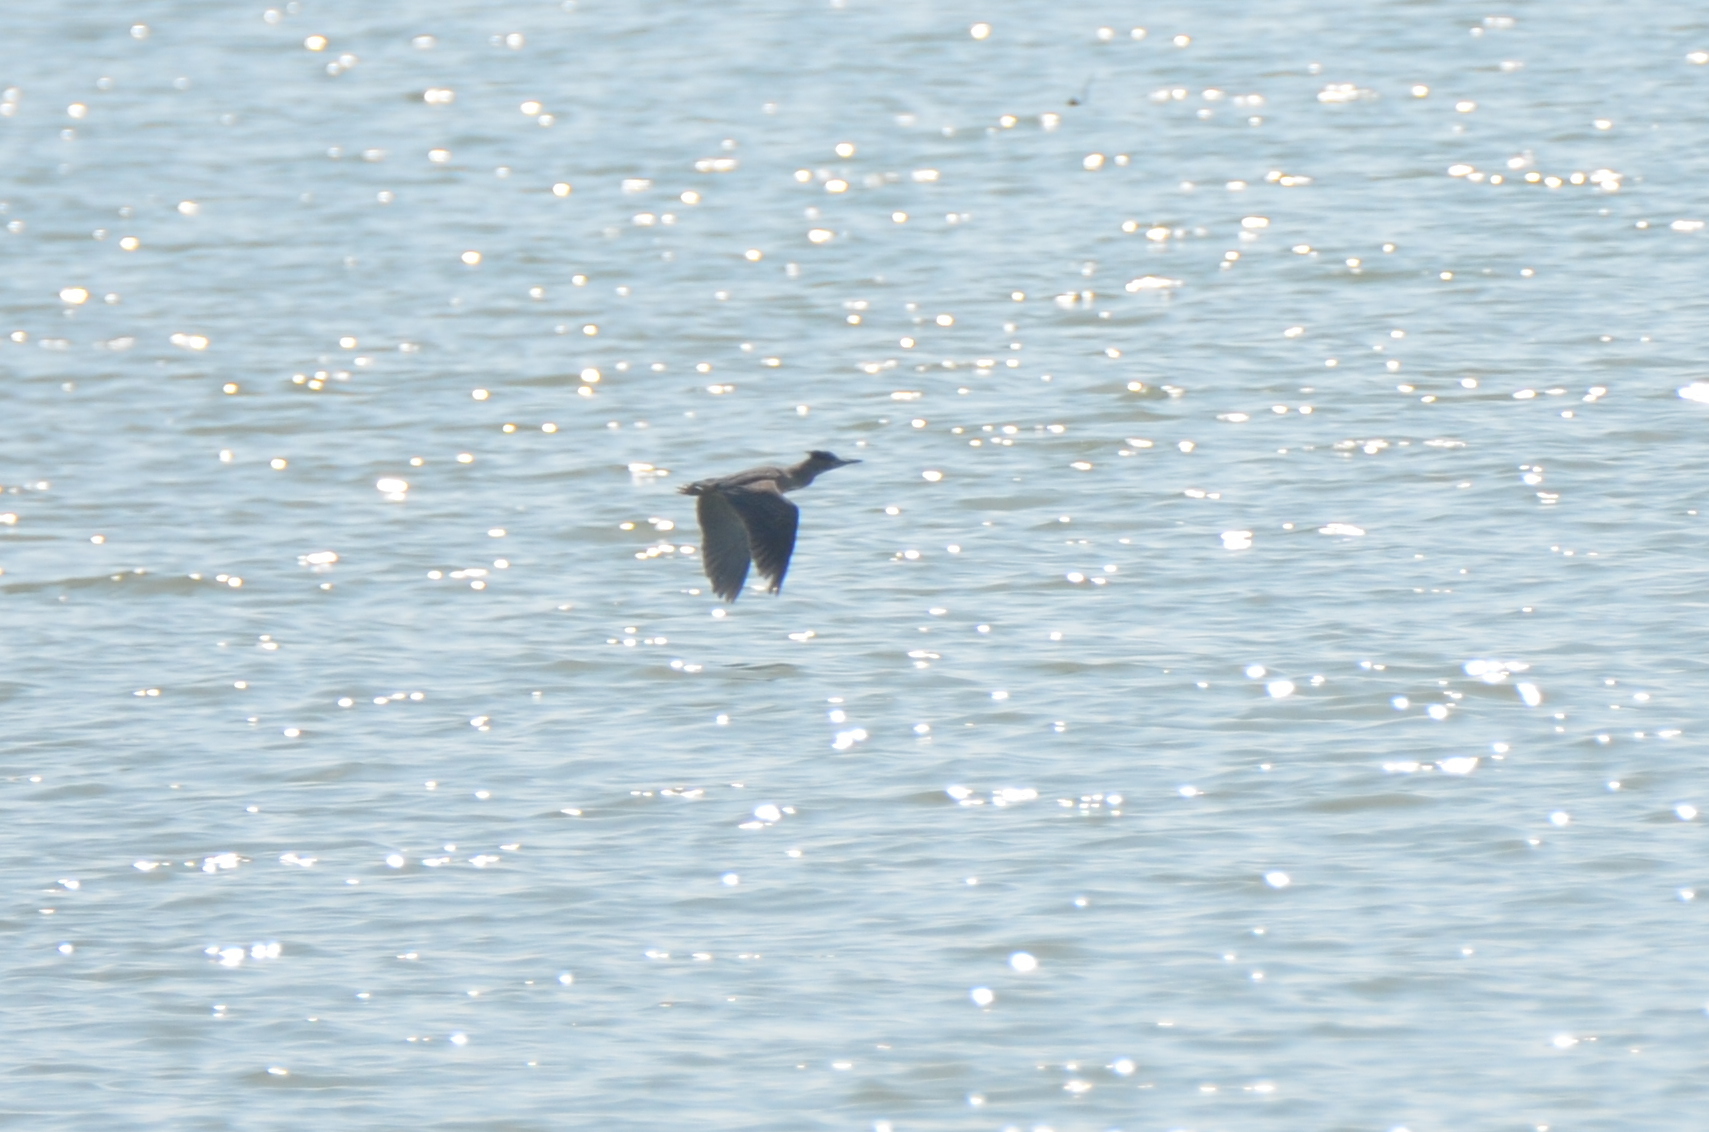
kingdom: Animalia
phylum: Chordata
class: Aves
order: Pelecaniformes
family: Ardeidae
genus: Butorides
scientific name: Butorides striata
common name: Striated heron
